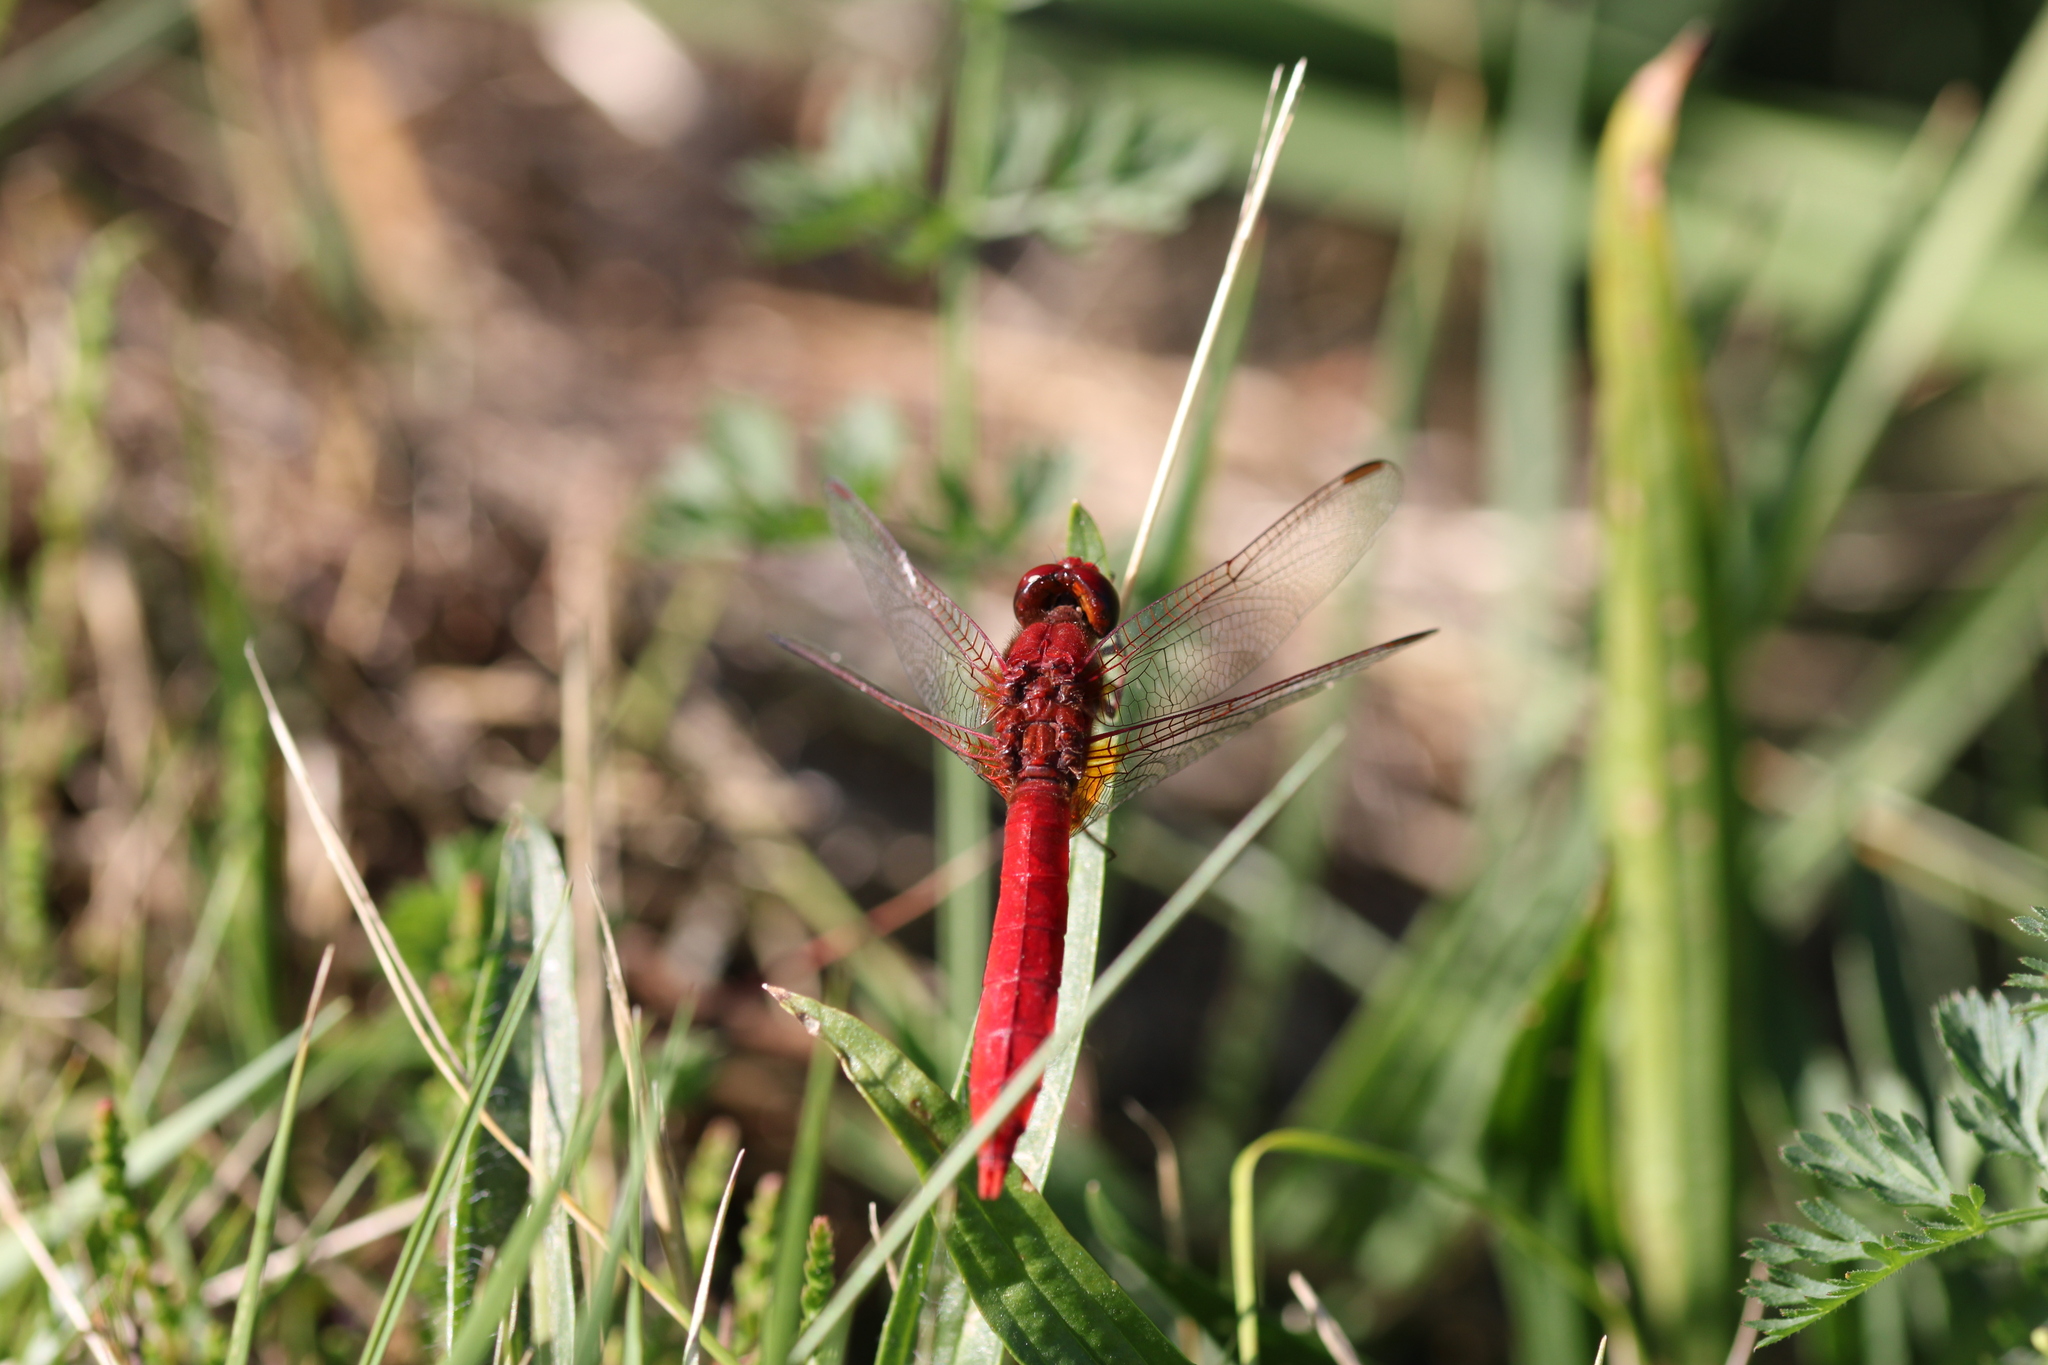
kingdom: Animalia
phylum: Arthropoda
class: Insecta
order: Odonata
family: Libellulidae
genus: Crocothemis
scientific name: Crocothemis erythraea
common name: Scarlet dragonfly
